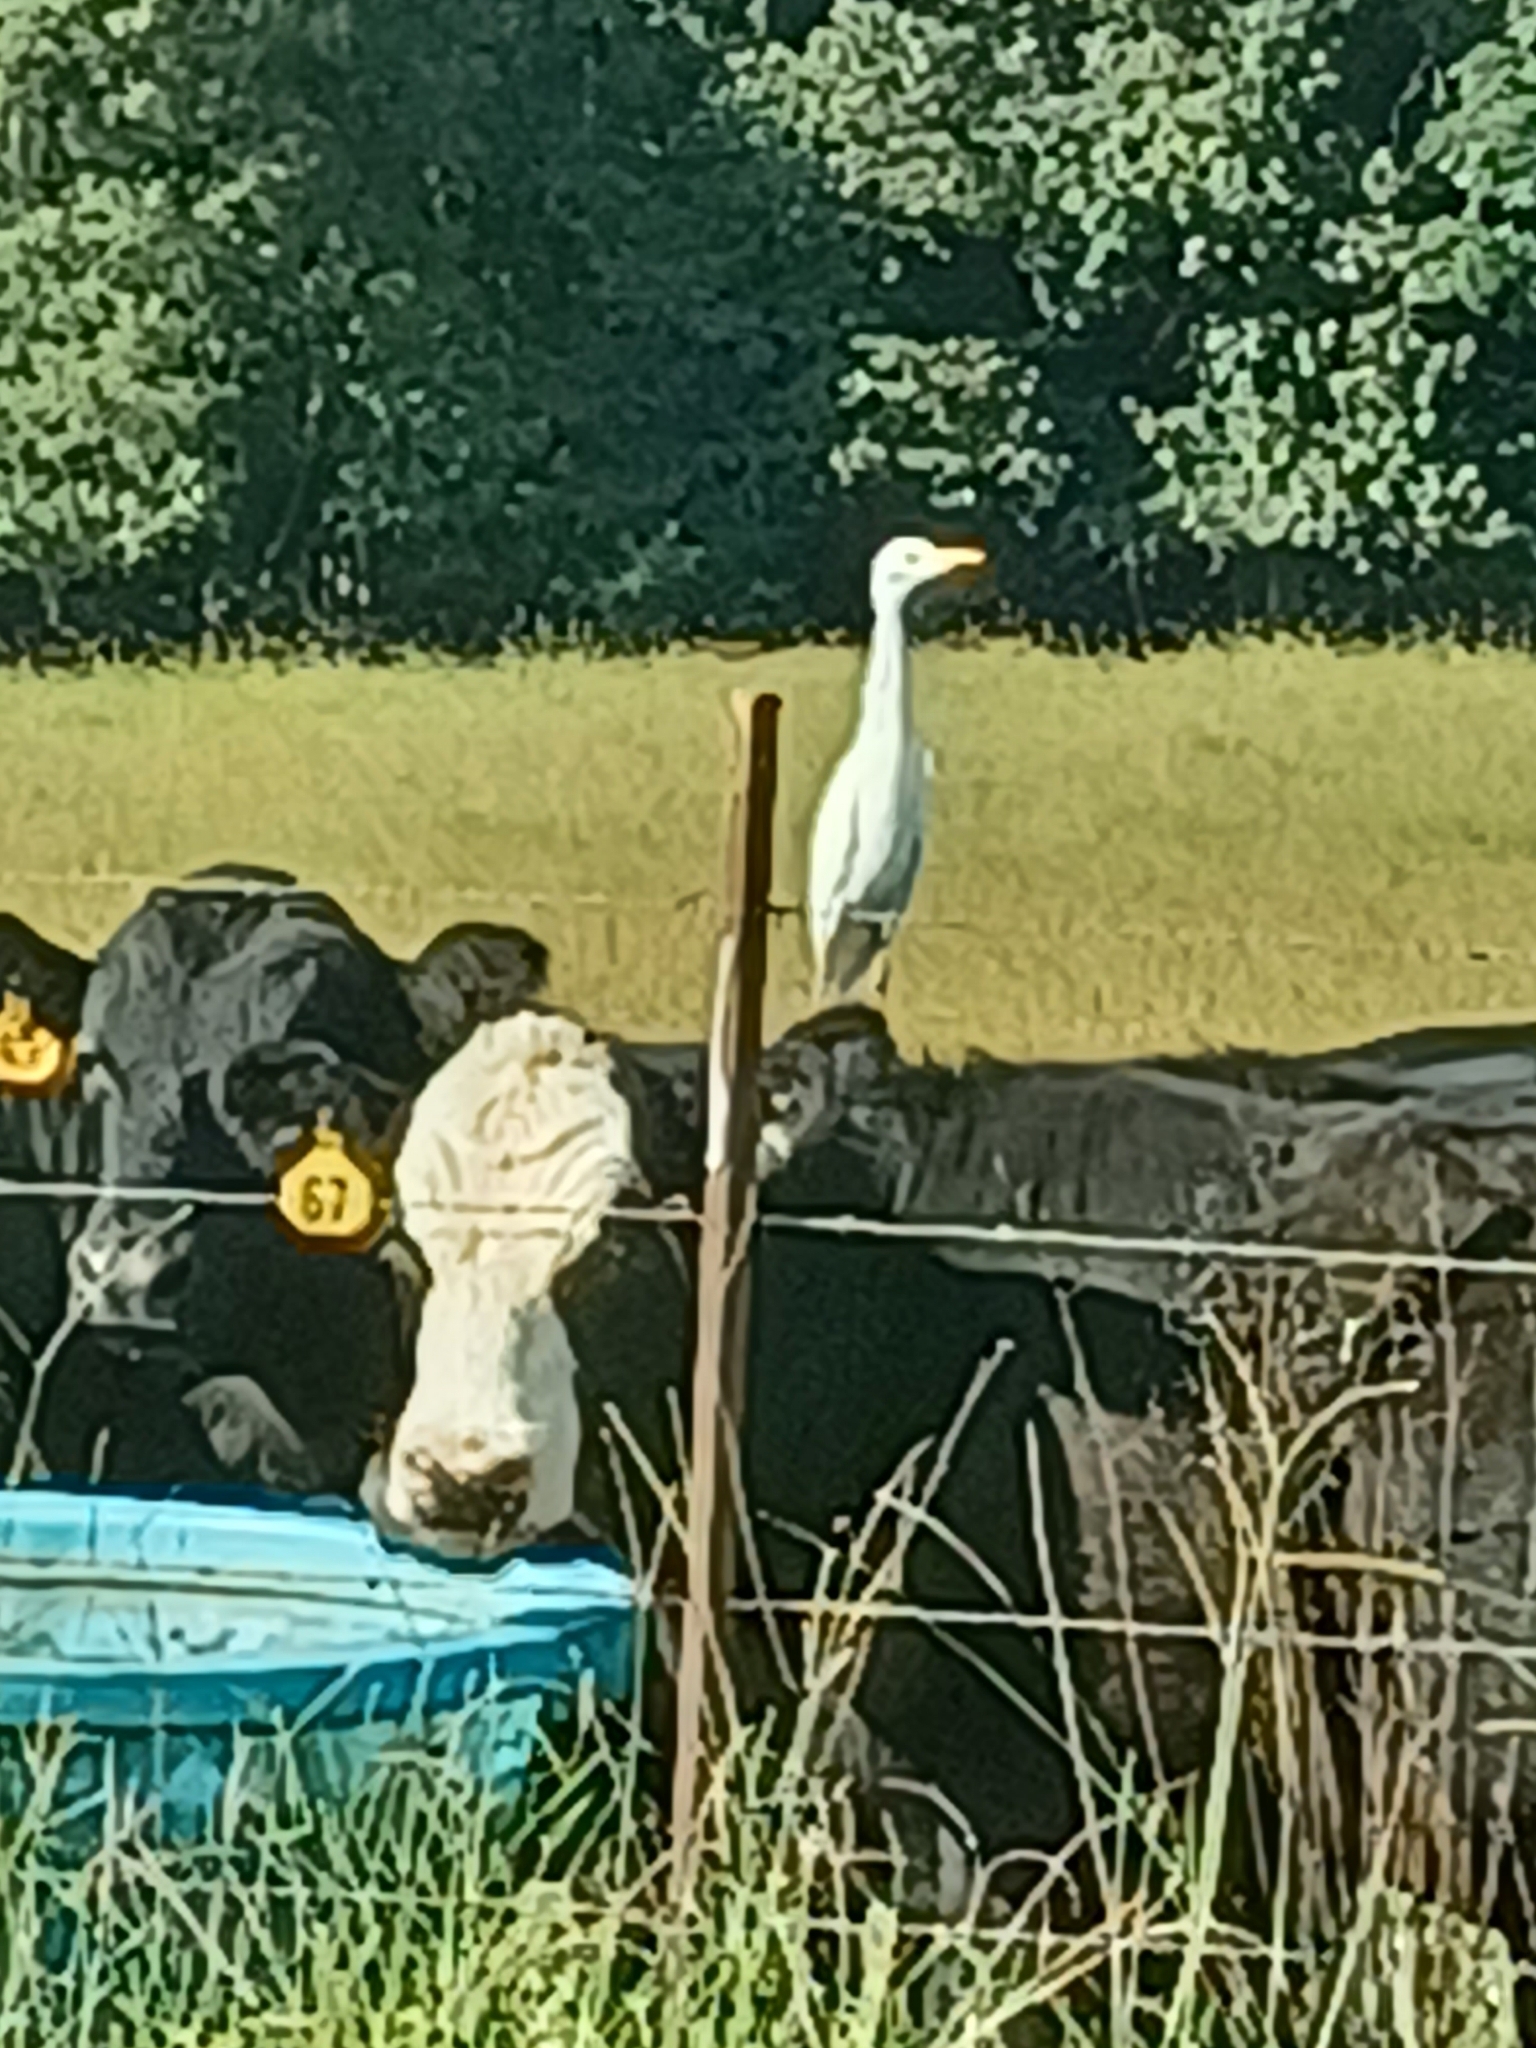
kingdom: Animalia
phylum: Chordata
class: Aves
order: Pelecaniformes
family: Ardeidae
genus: Bubulcus
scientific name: Bubulcus ibis
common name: Cattle egret
